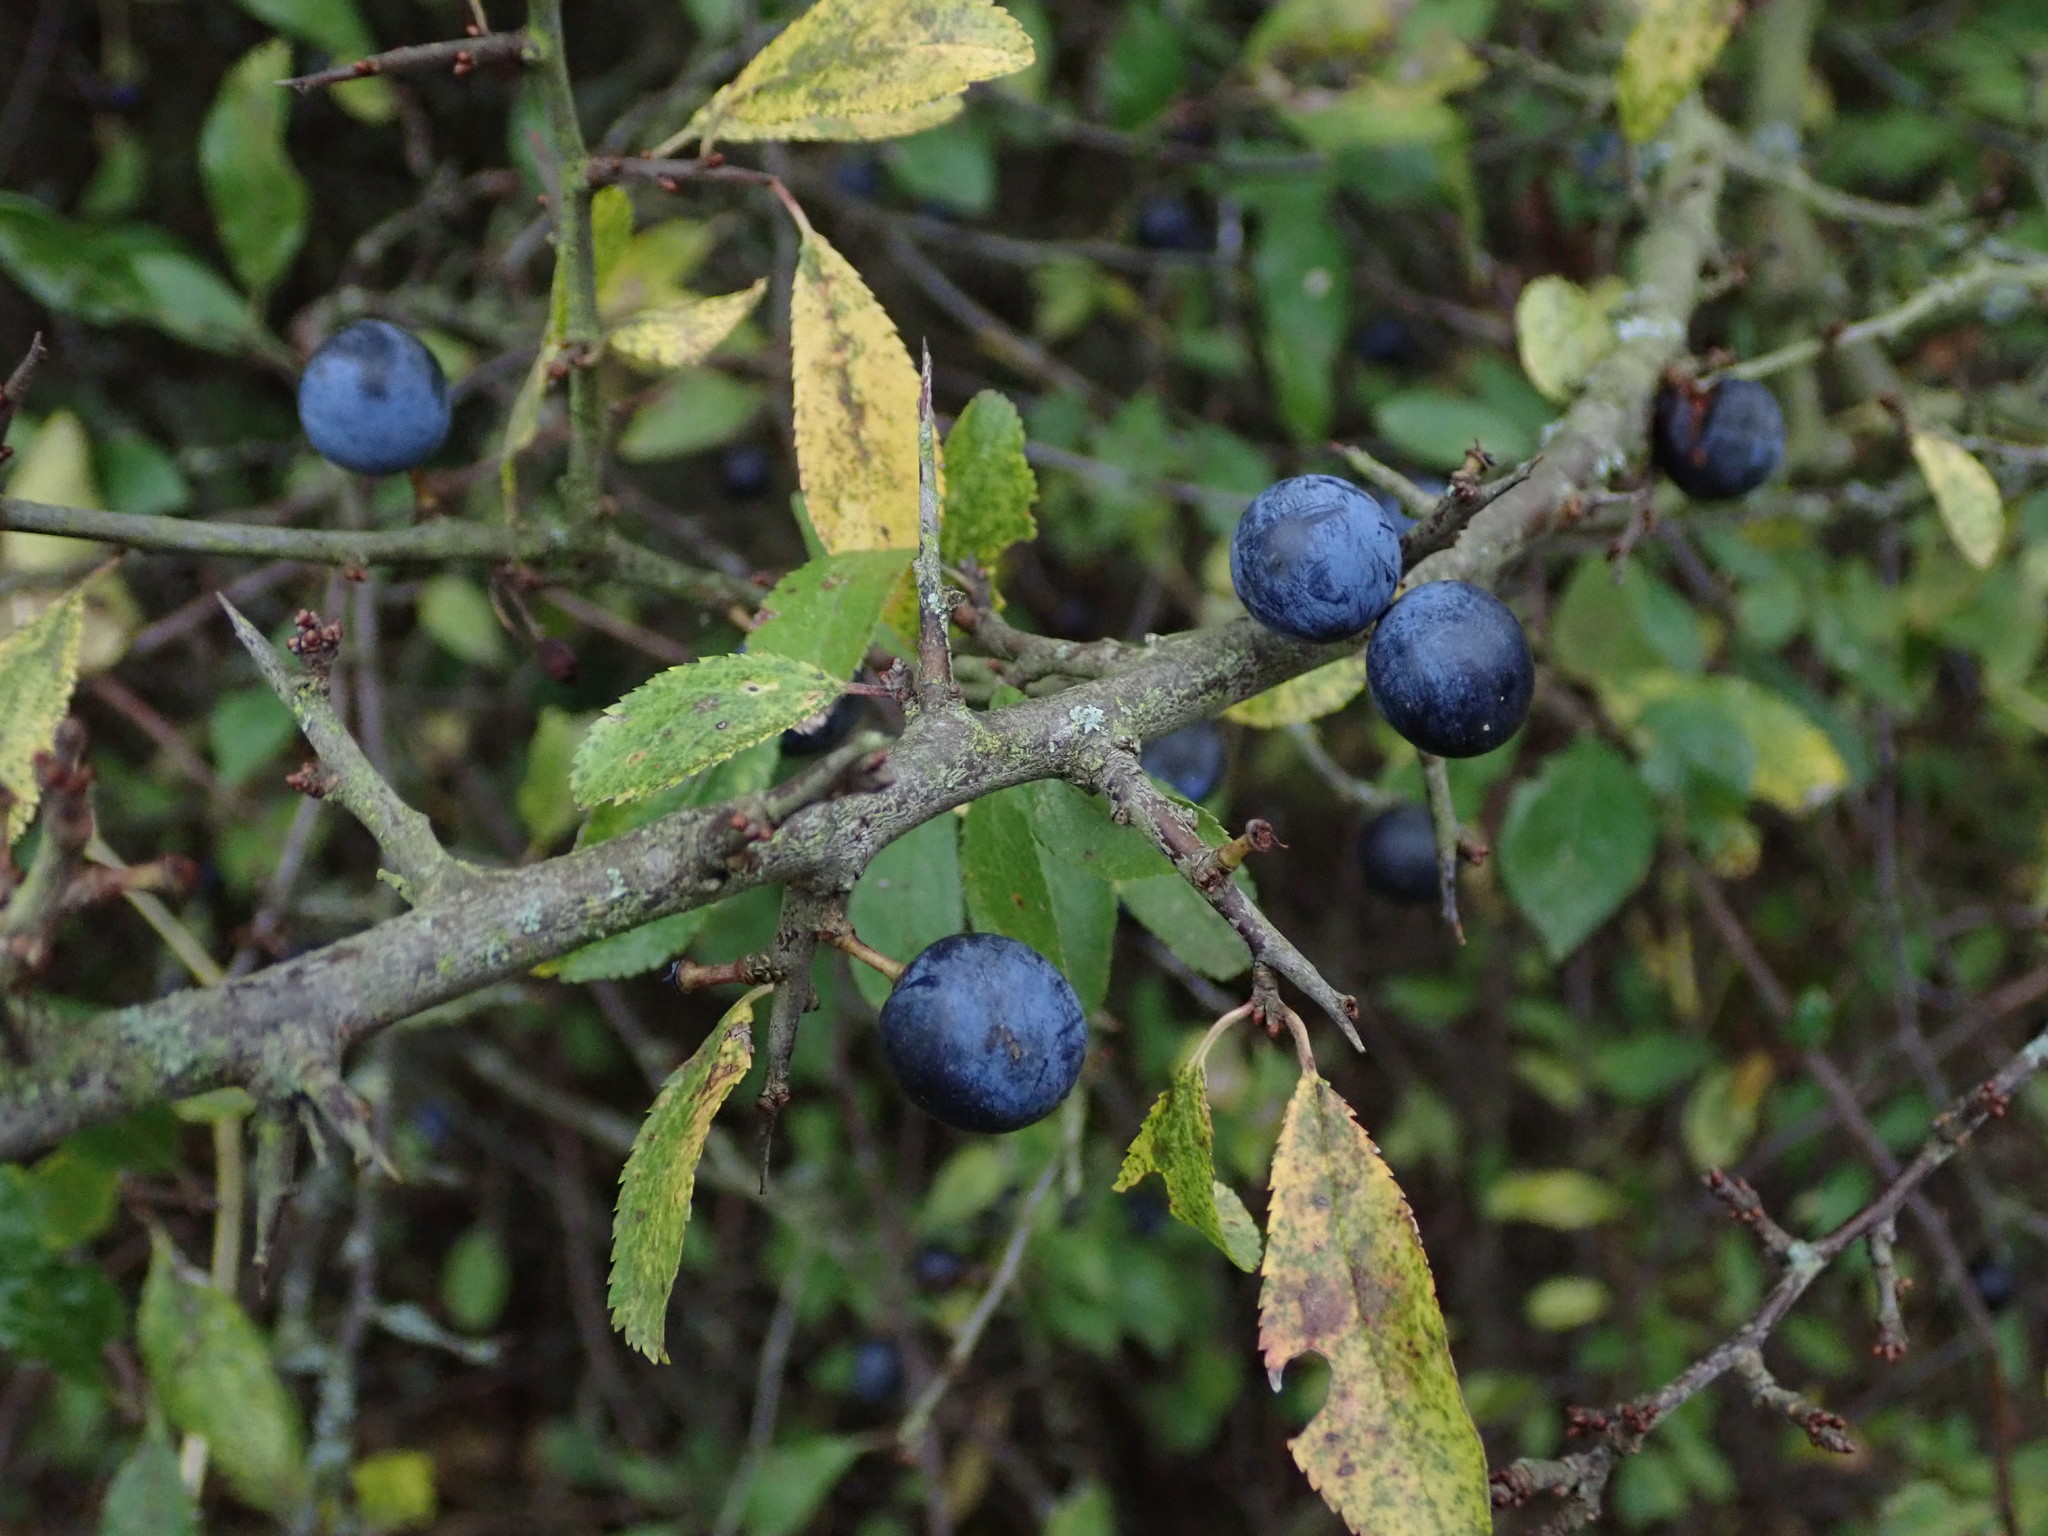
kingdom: Plantae
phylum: Tracheophyta
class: Magnoliopsida
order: Rosales
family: Rosaceae
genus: Prunus
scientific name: Prunus spinosa
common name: Blackthorn
